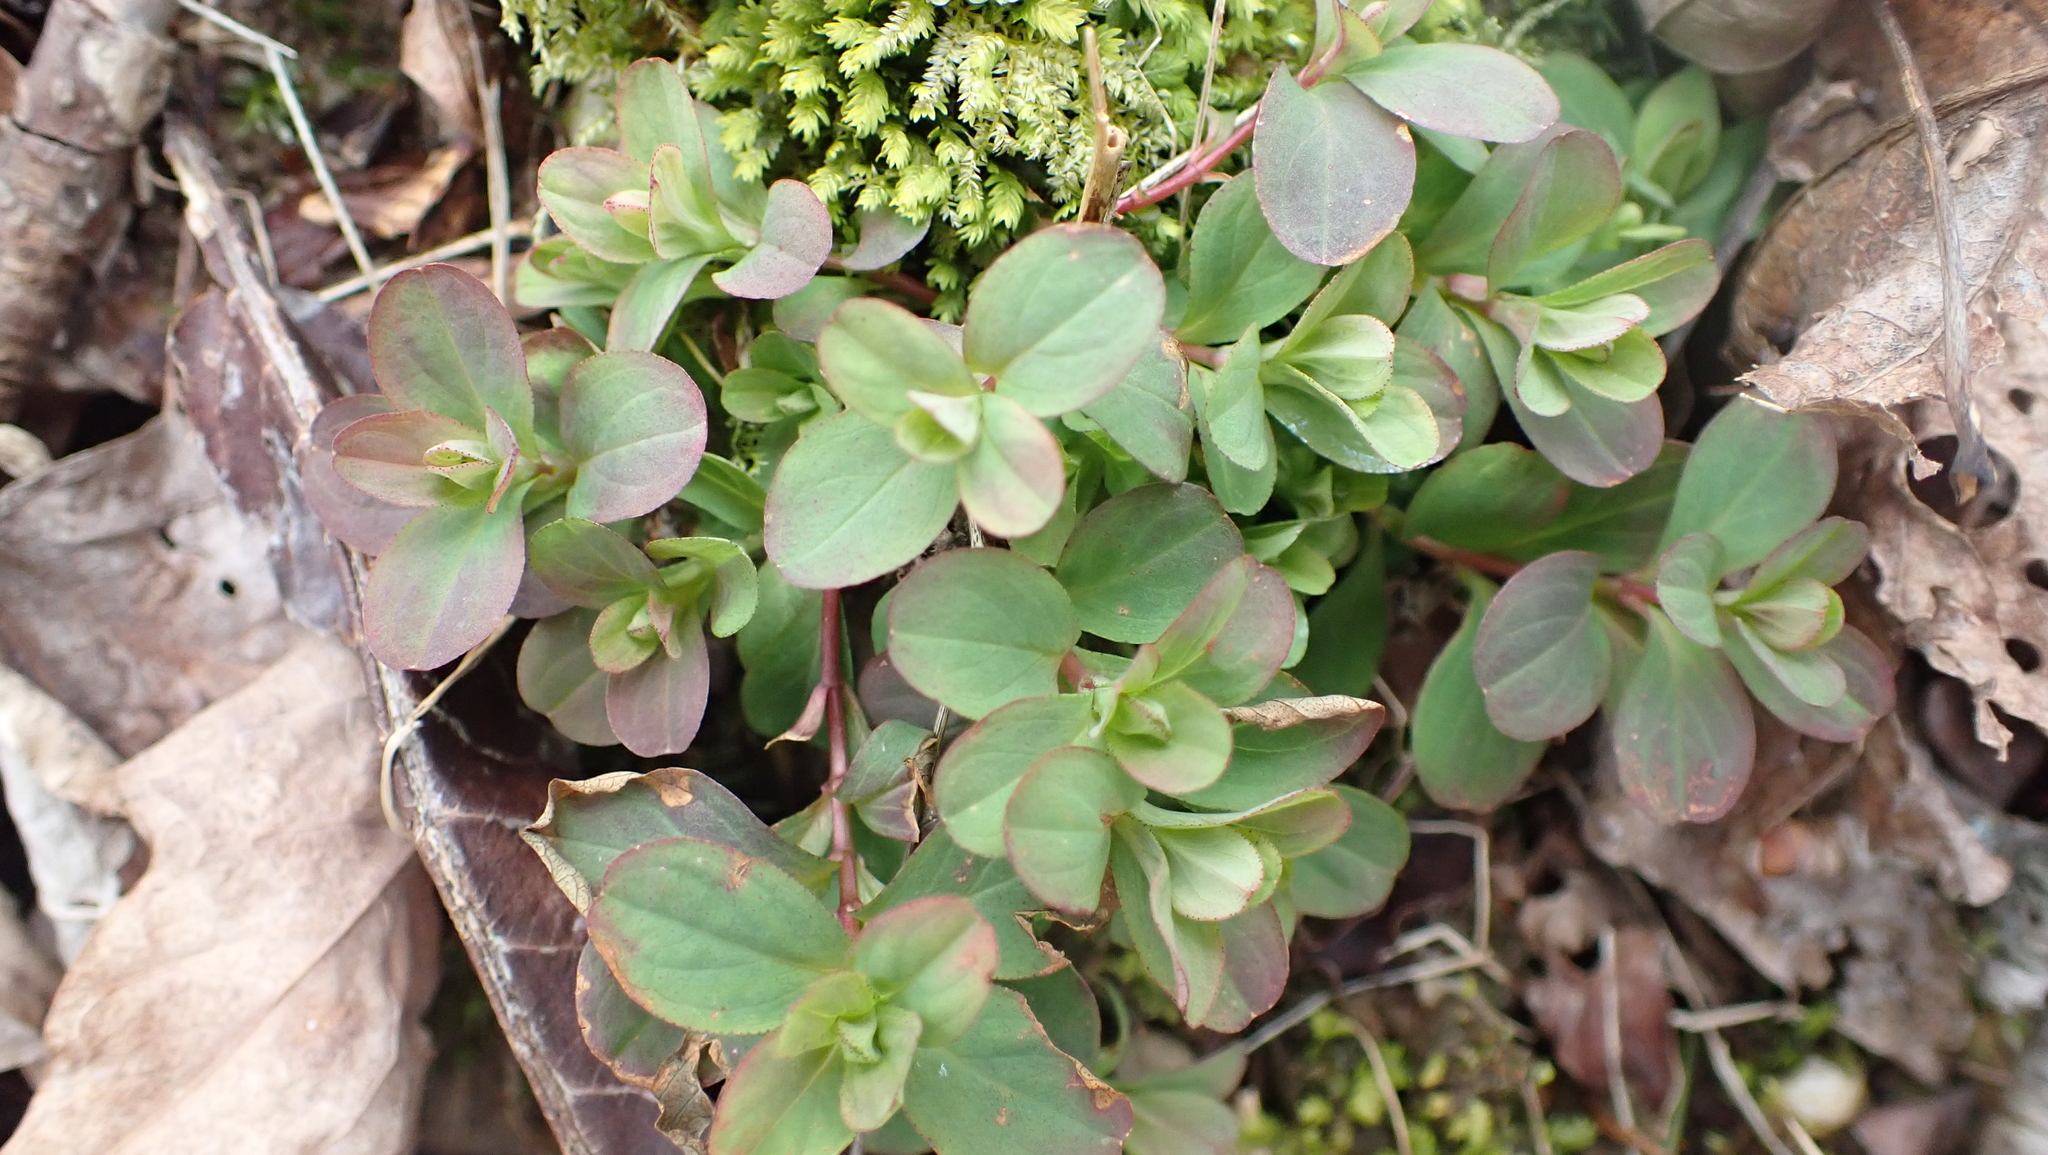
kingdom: Plantae
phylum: Tracheophyta
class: Magnoliopsida
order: Malpighiales
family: Hypericaceae
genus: Hypericum
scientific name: Hypericum punctatum
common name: Spotted st. john's-wort
